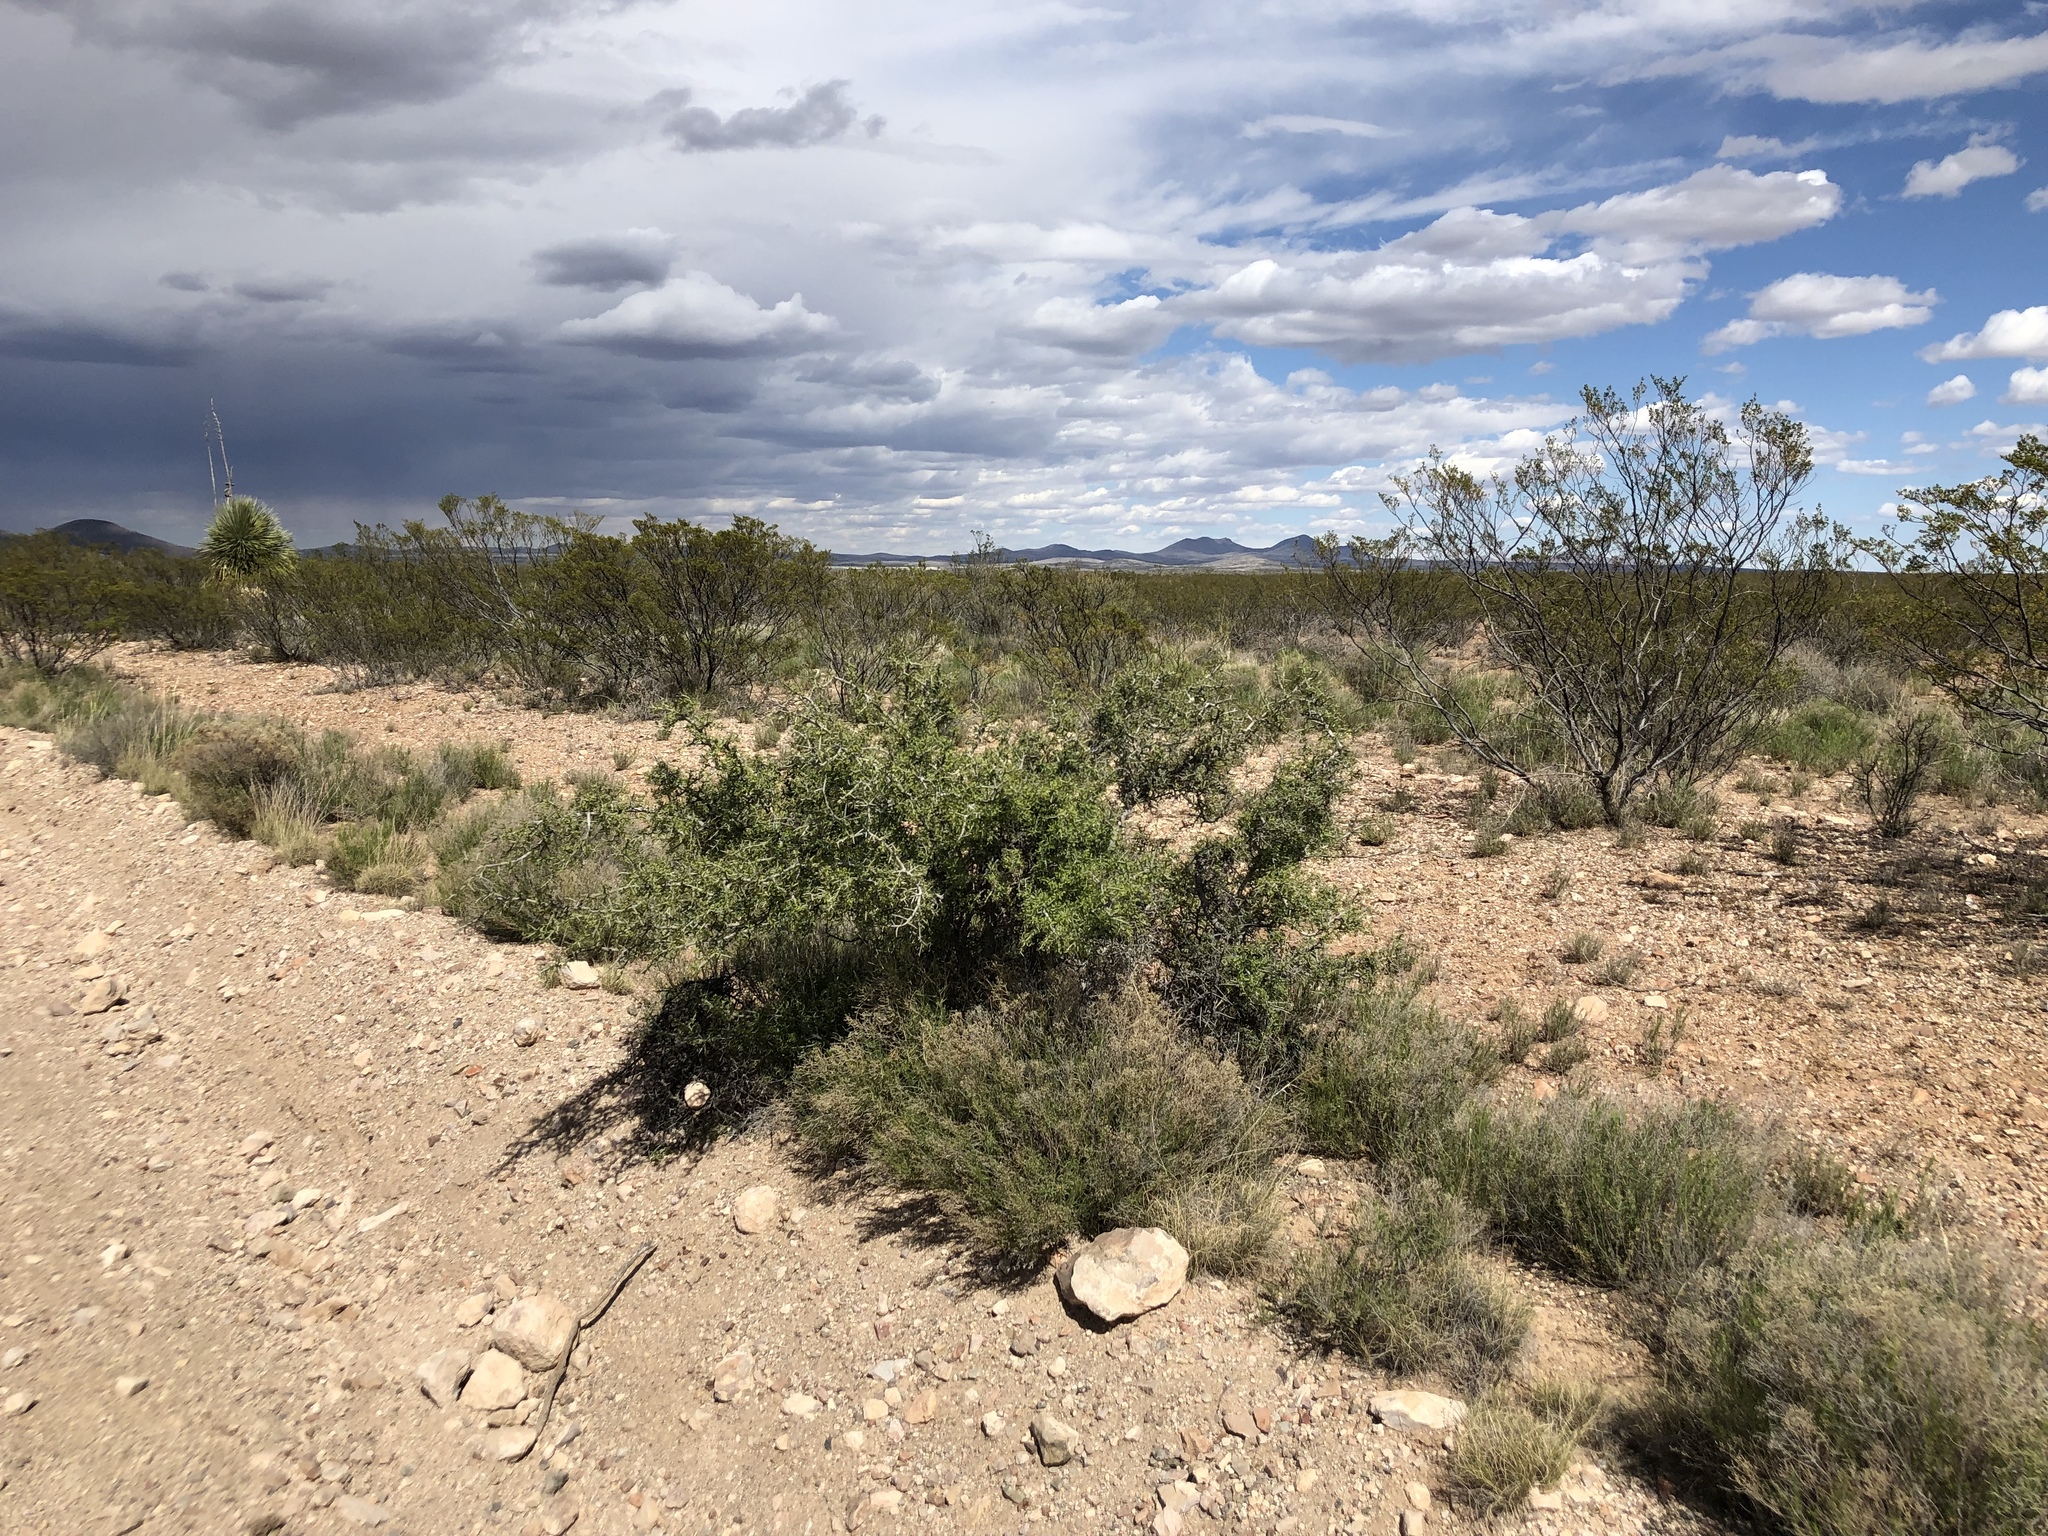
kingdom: Plantae
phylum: Tracheophyta
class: Magnoliopsida
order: Rosales
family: Rhamnaceae
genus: Sarcomphalus
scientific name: Sarcomphalus obtusifolius
